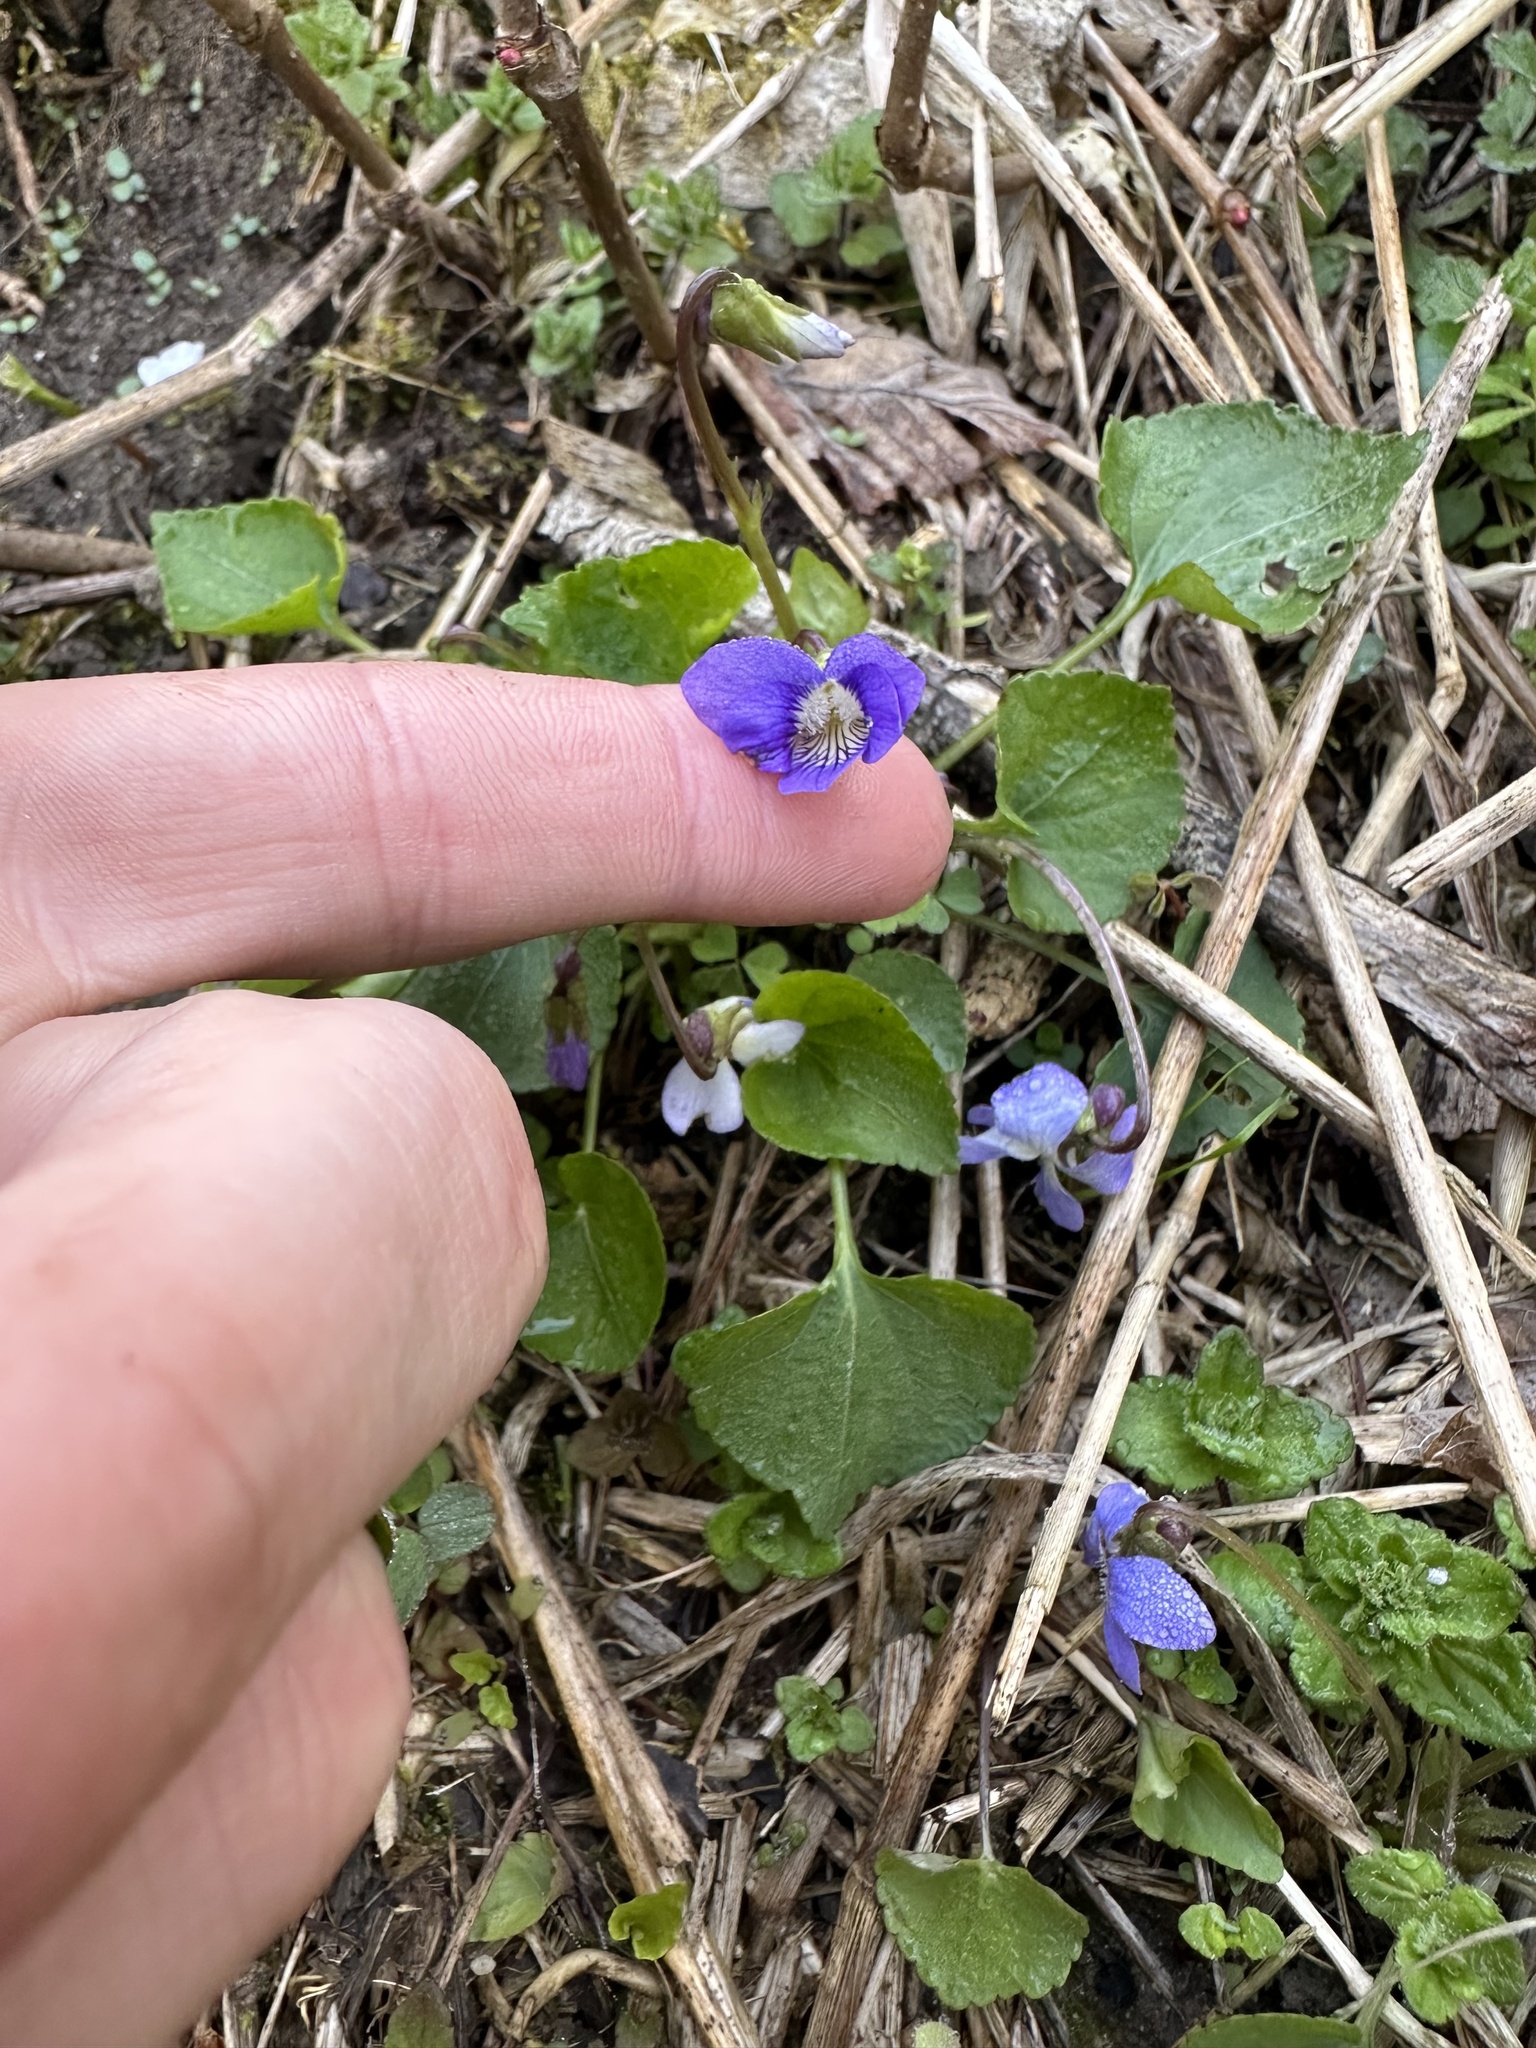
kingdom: Plantae
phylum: Tracheophyta
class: Magnoliopsida
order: Malpighiales
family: Violaceae
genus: Viola
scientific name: Viola sororia
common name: Dooryard violet
